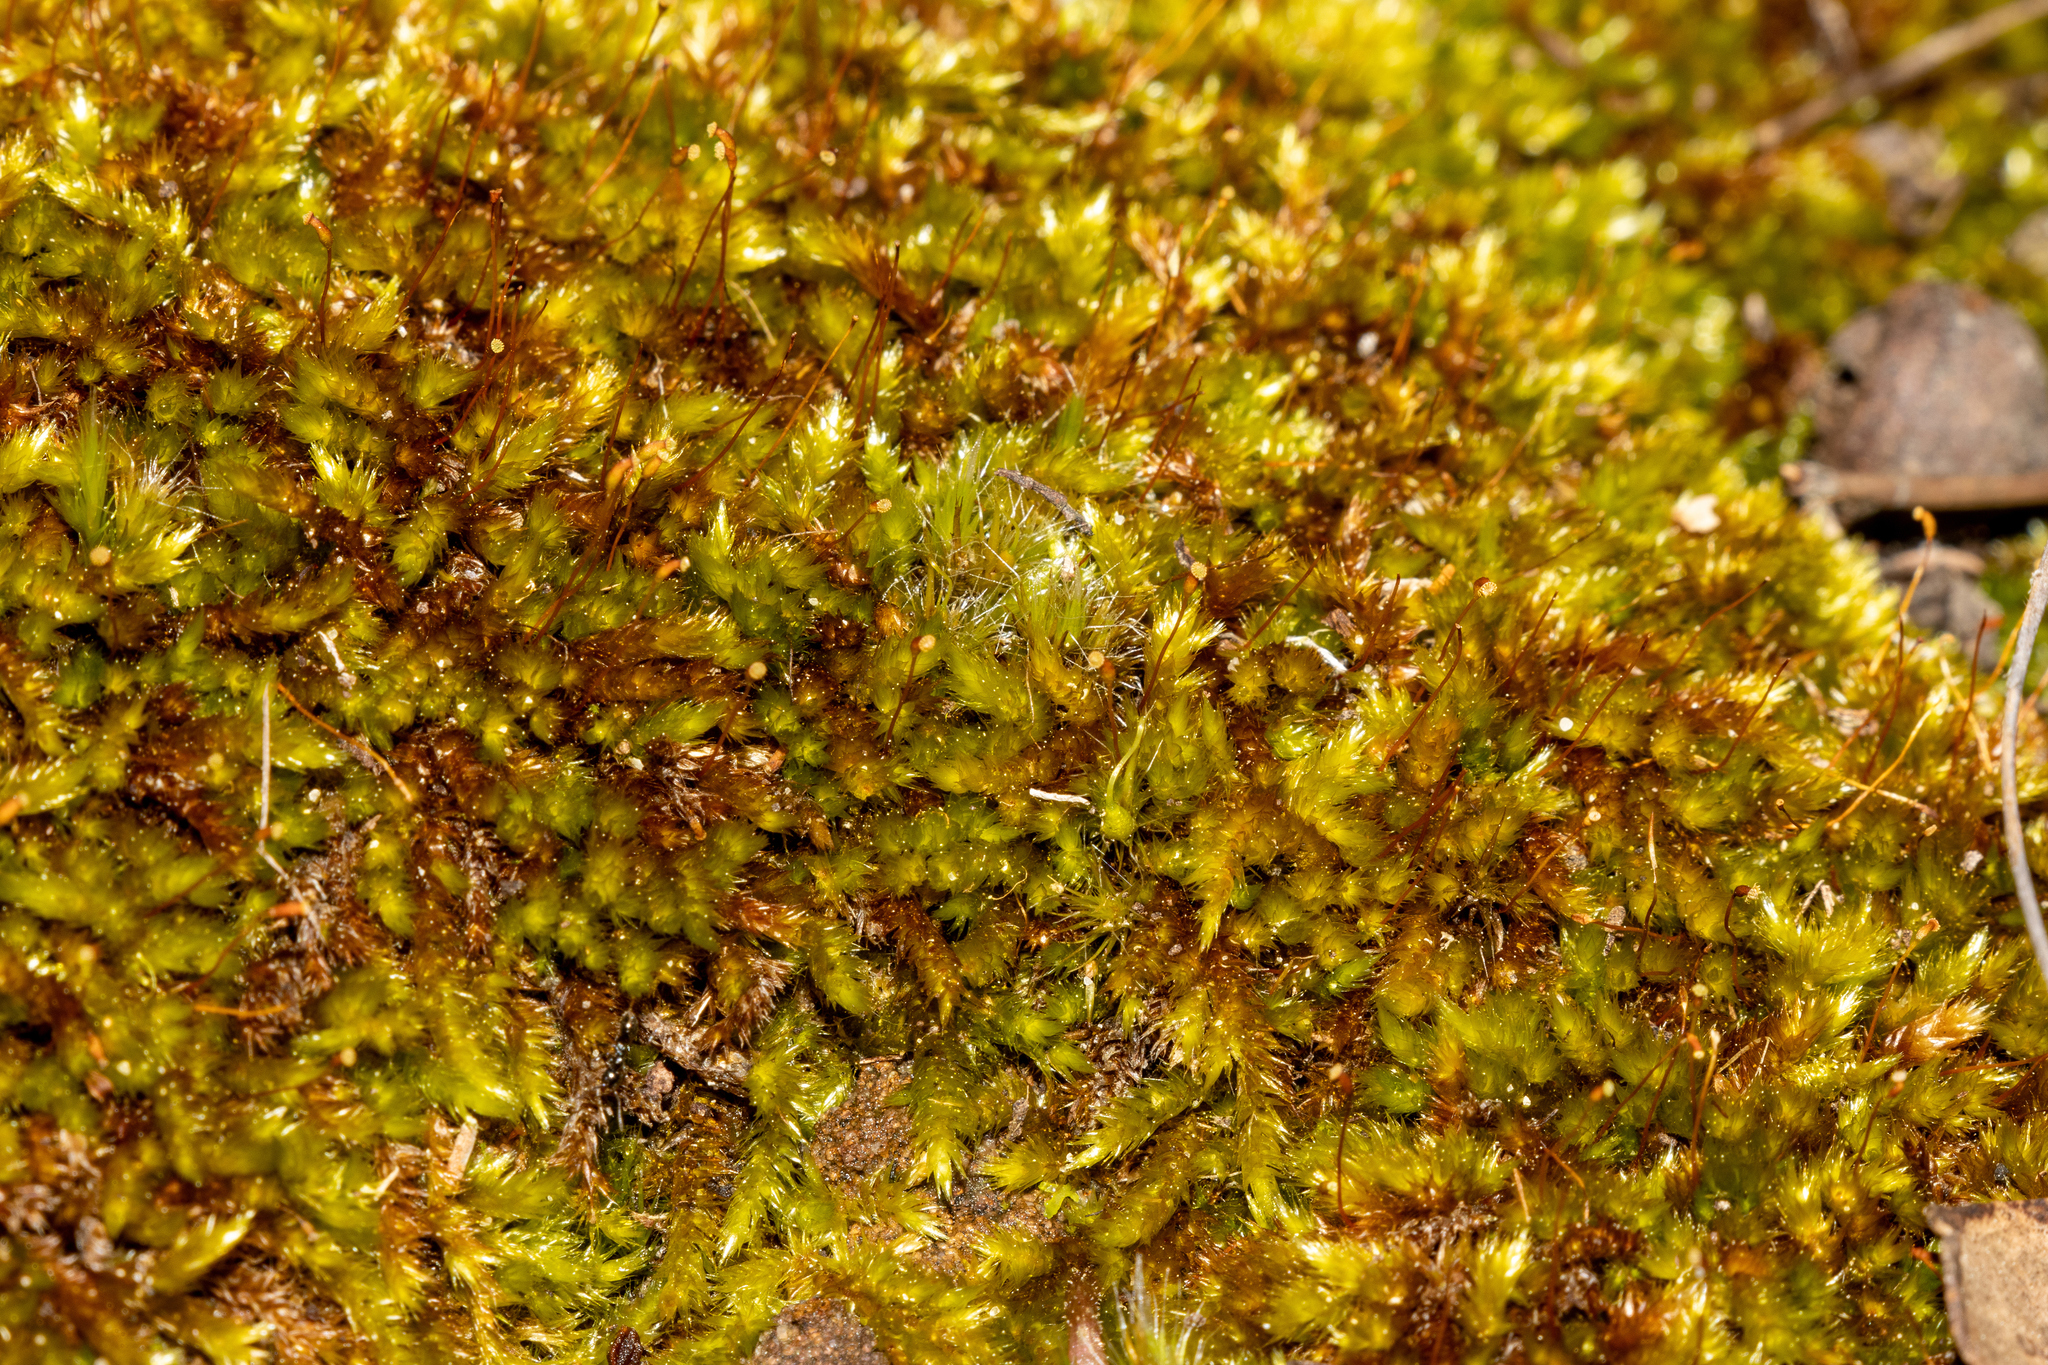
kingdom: Plantae
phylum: Bryophyta
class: Bryopsida
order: Hypnales
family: Sematophyllaceae
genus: Sematophyllum
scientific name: Sematophyllum homomallum
